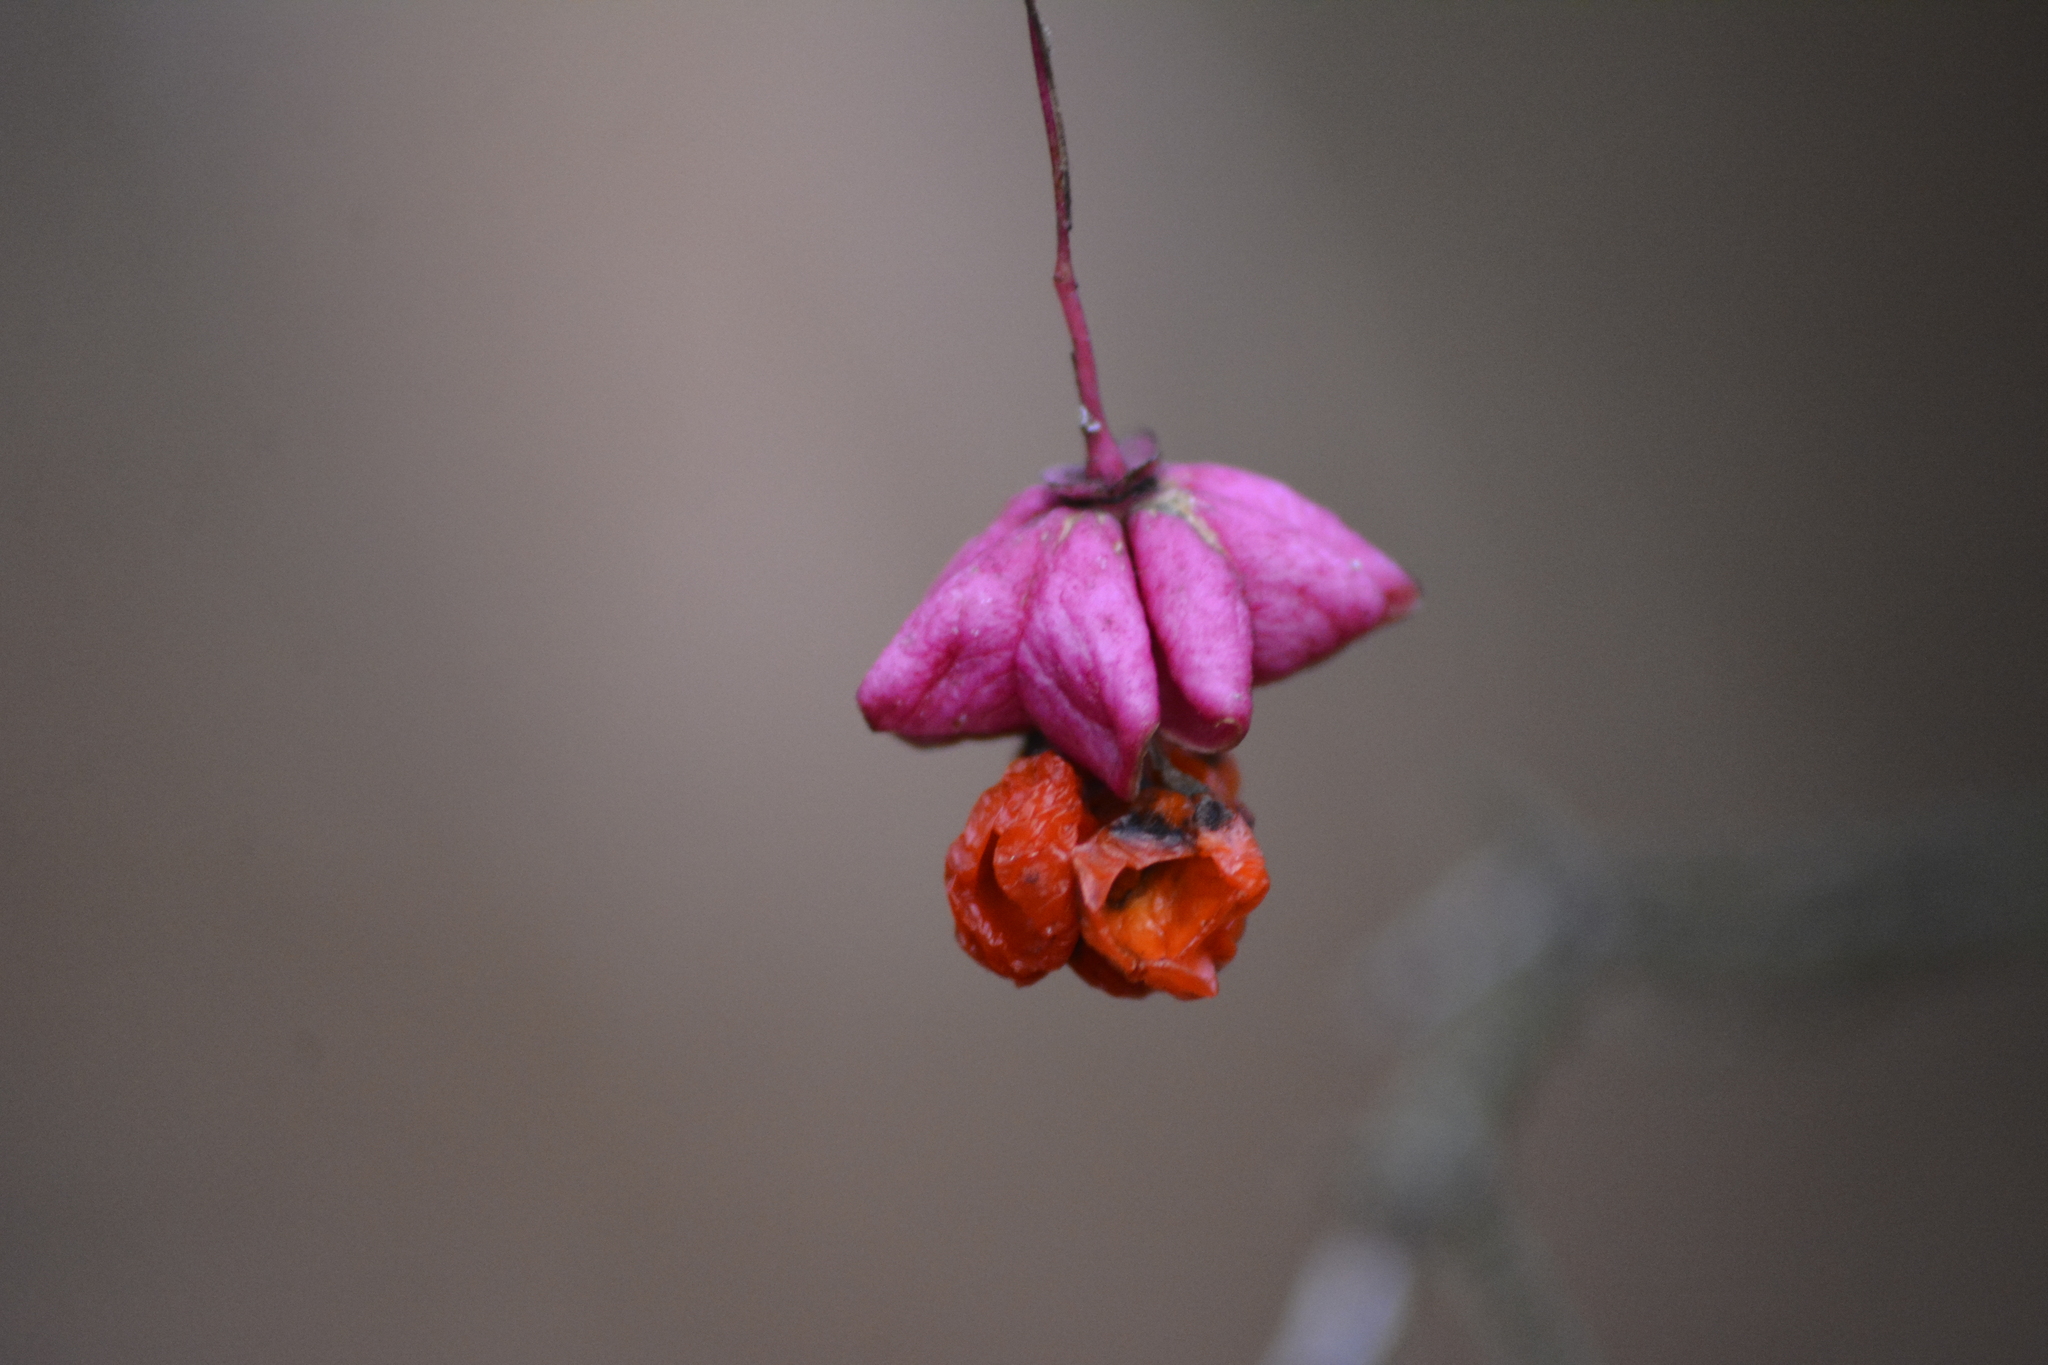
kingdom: Plantae
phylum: Tracheophyta
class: Magnoliopsida
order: Celastrales
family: Celastraceae
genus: Euonymus
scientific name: Euonymus verrucosus
